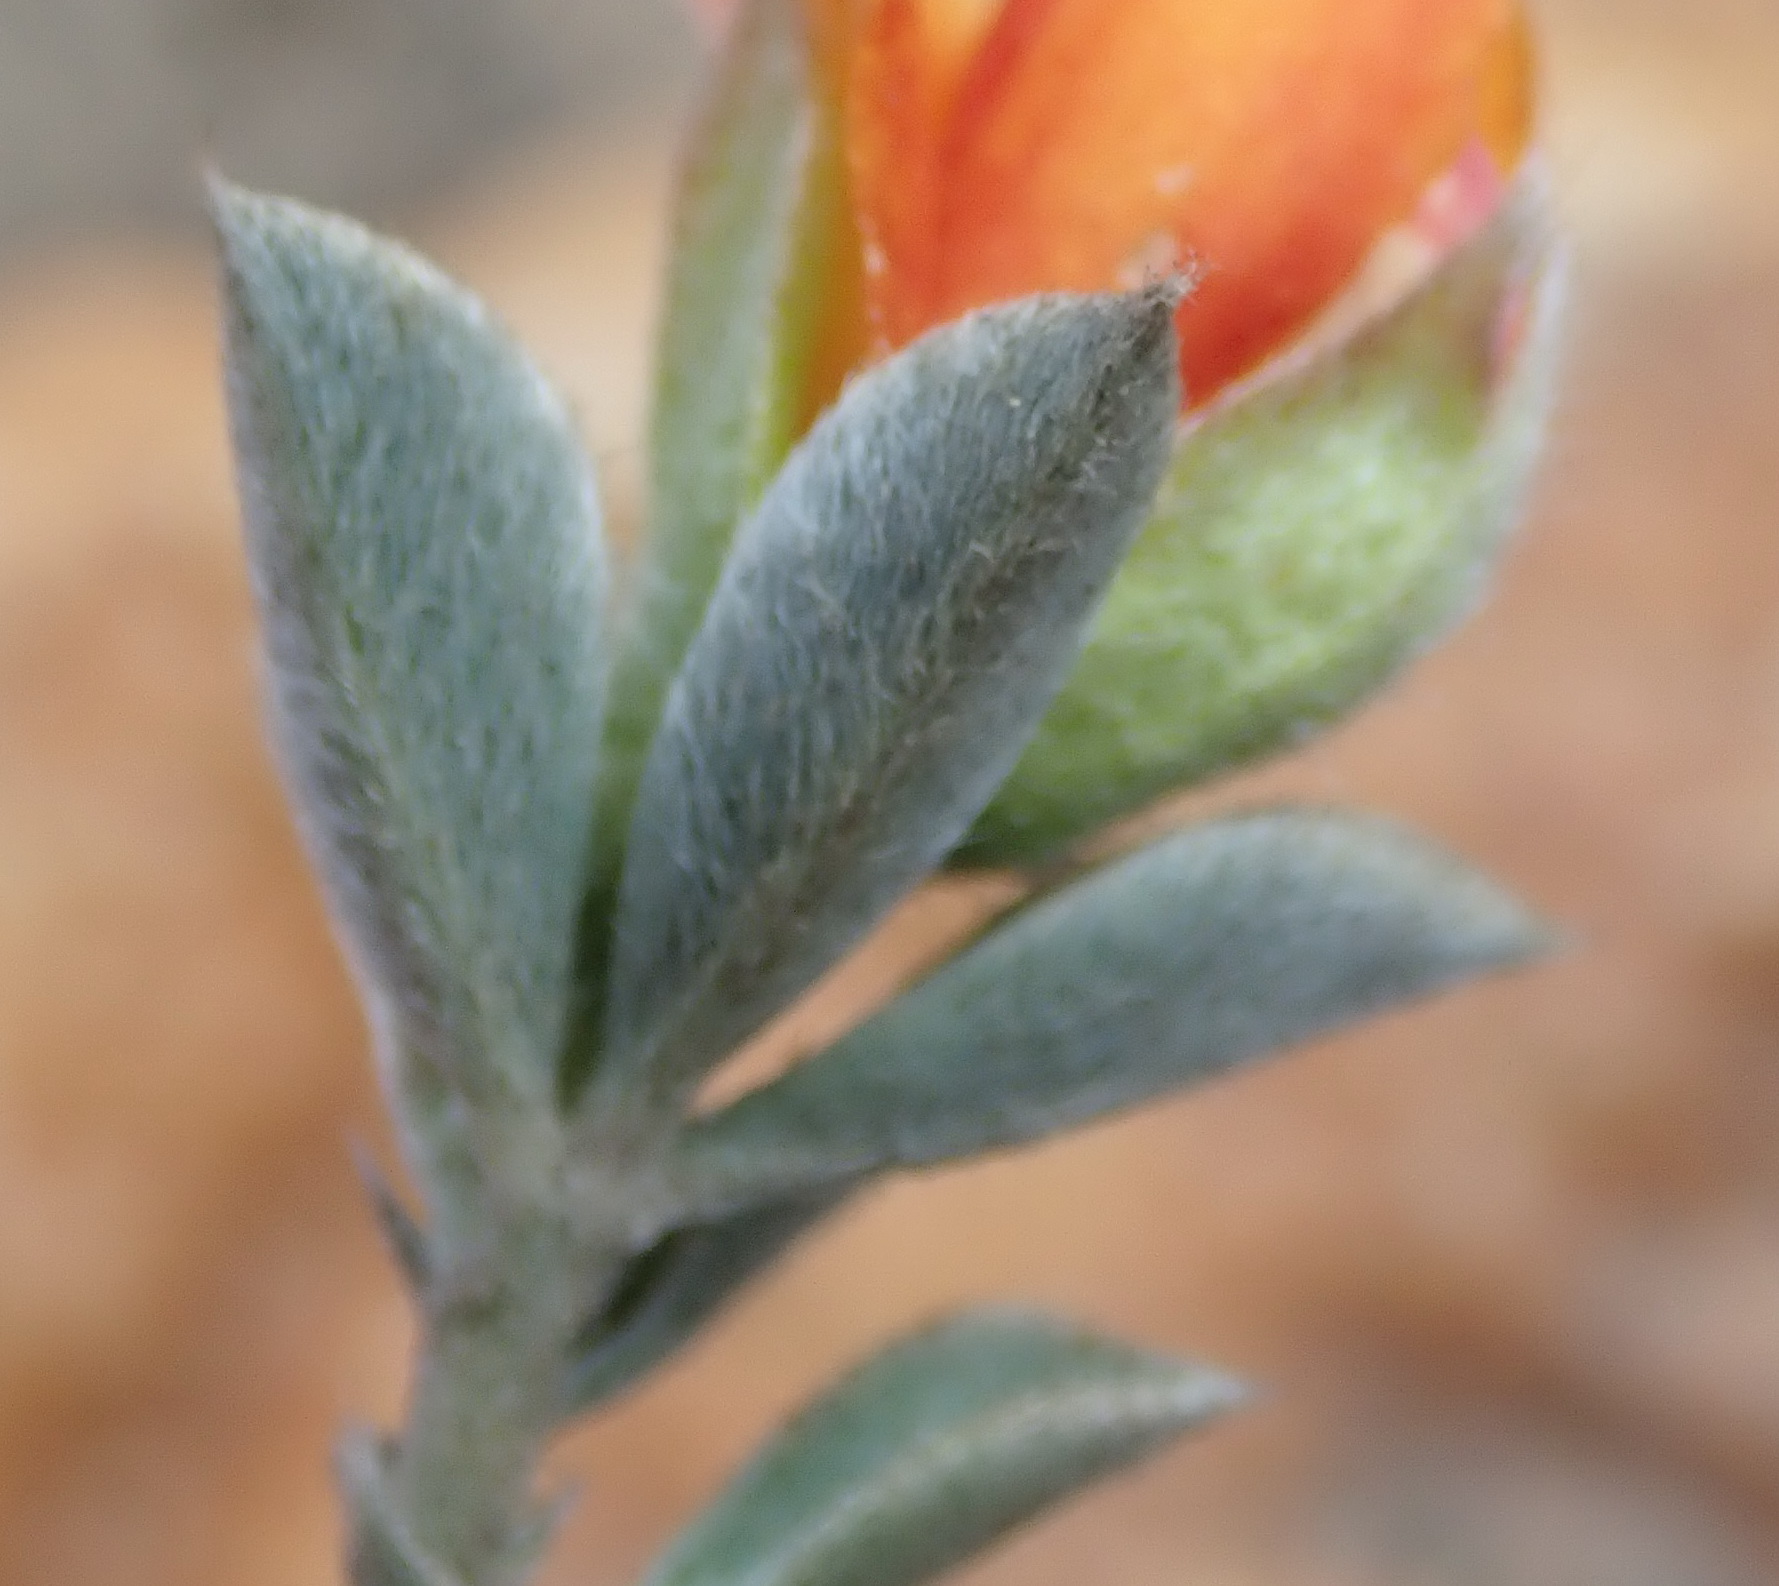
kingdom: Plantae
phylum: Tracheophyta
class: Magnoliopsida
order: Fabales
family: Fabaceae
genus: Argyrolobium
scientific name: Argyrolobium pumilum
